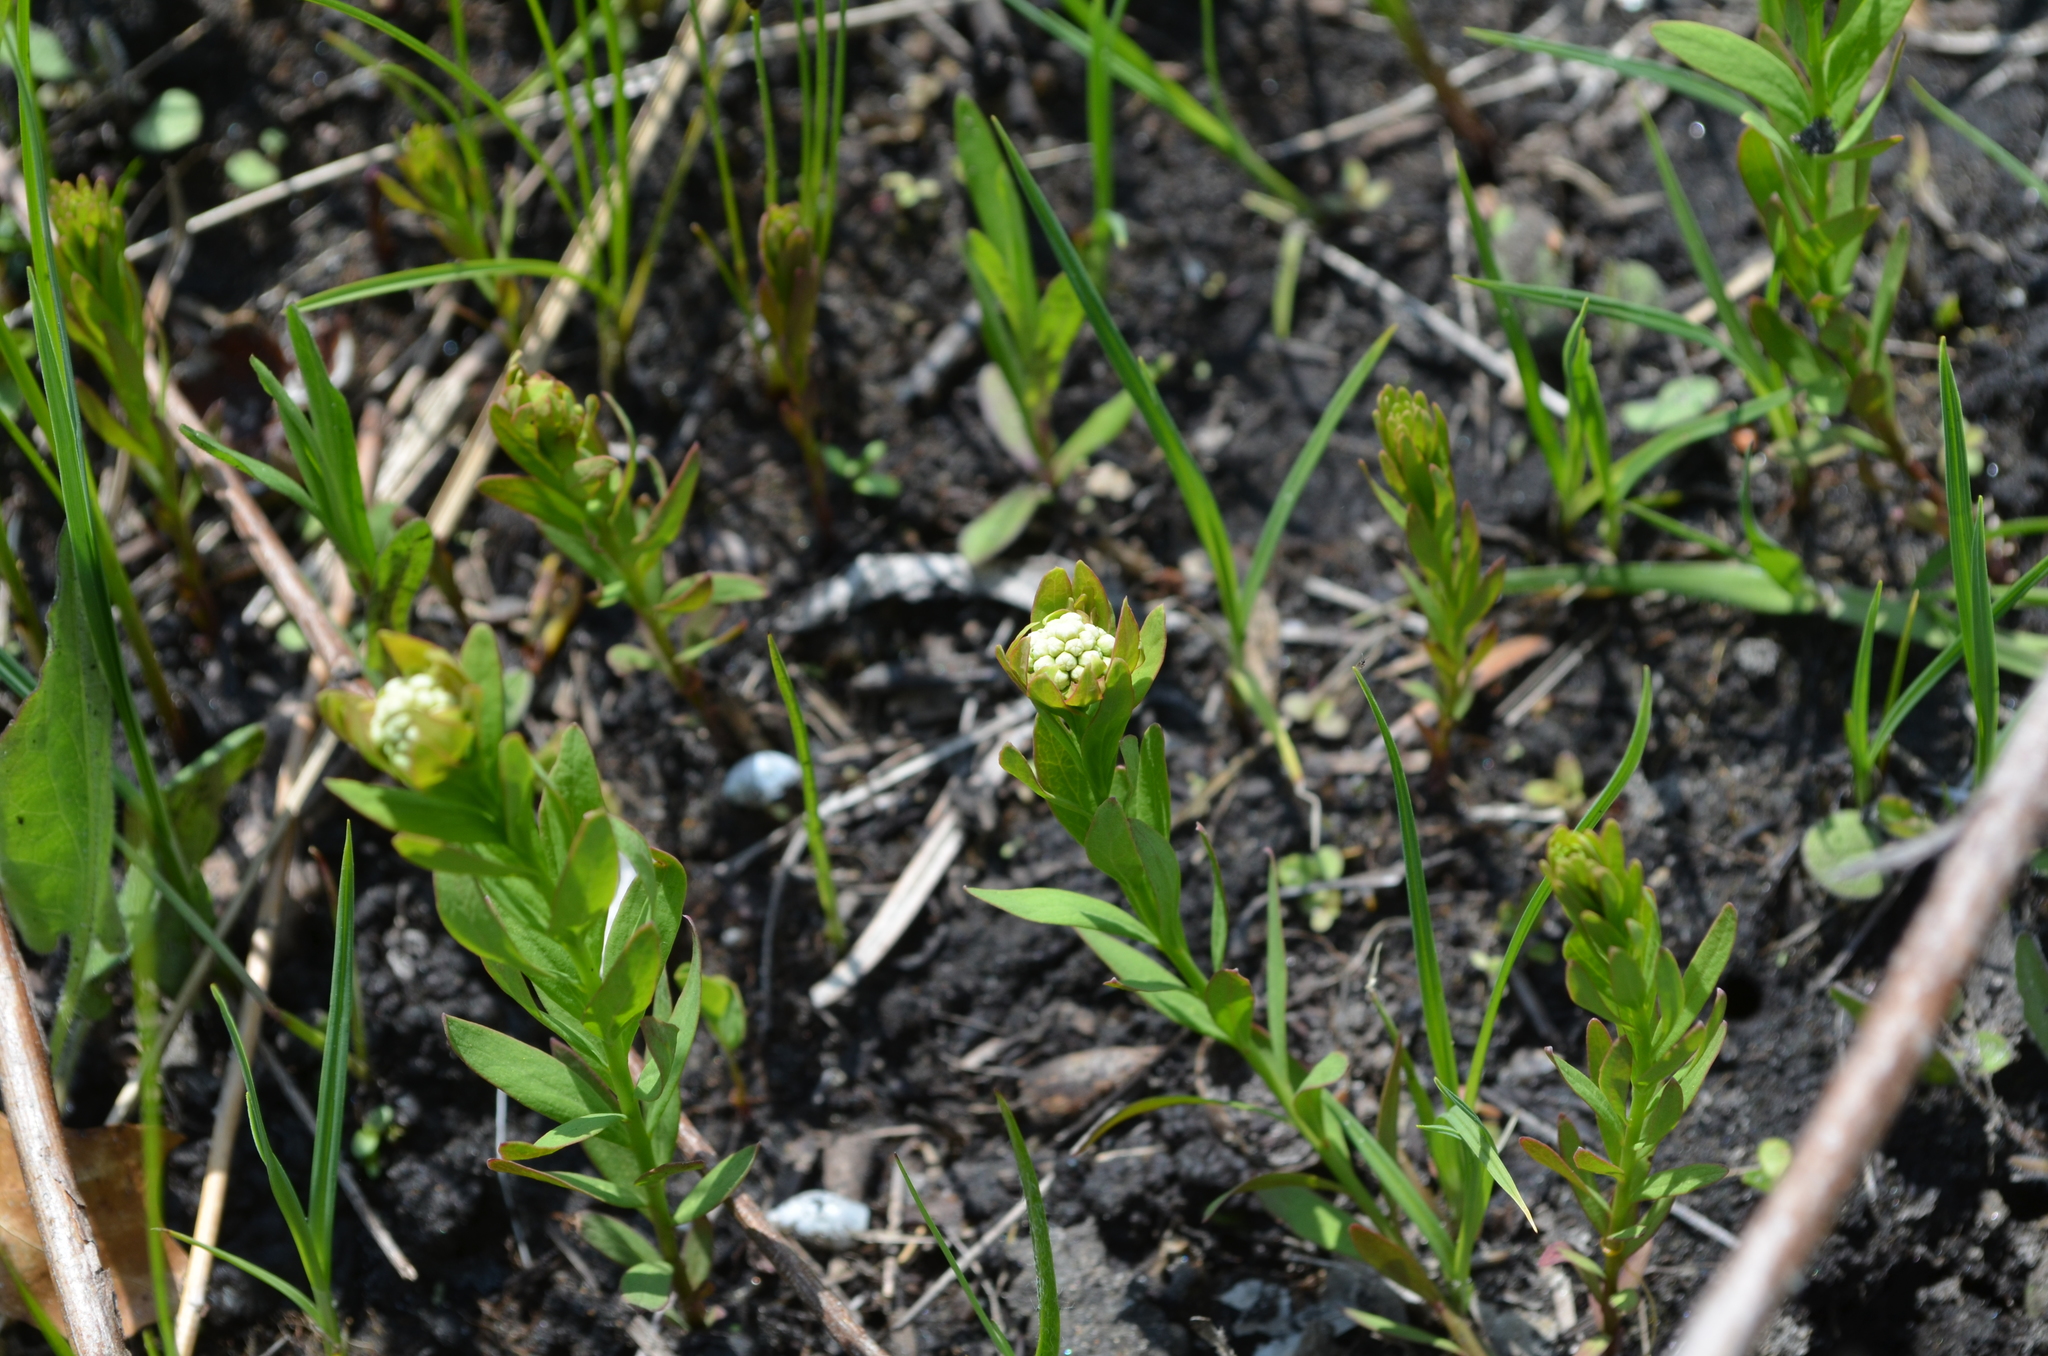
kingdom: Plantae
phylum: Tracheophyta
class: Magnoliopsida
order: Santalales
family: Comandraceae
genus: Comandra
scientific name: Comandra umbellata
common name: Bastard toadflax
